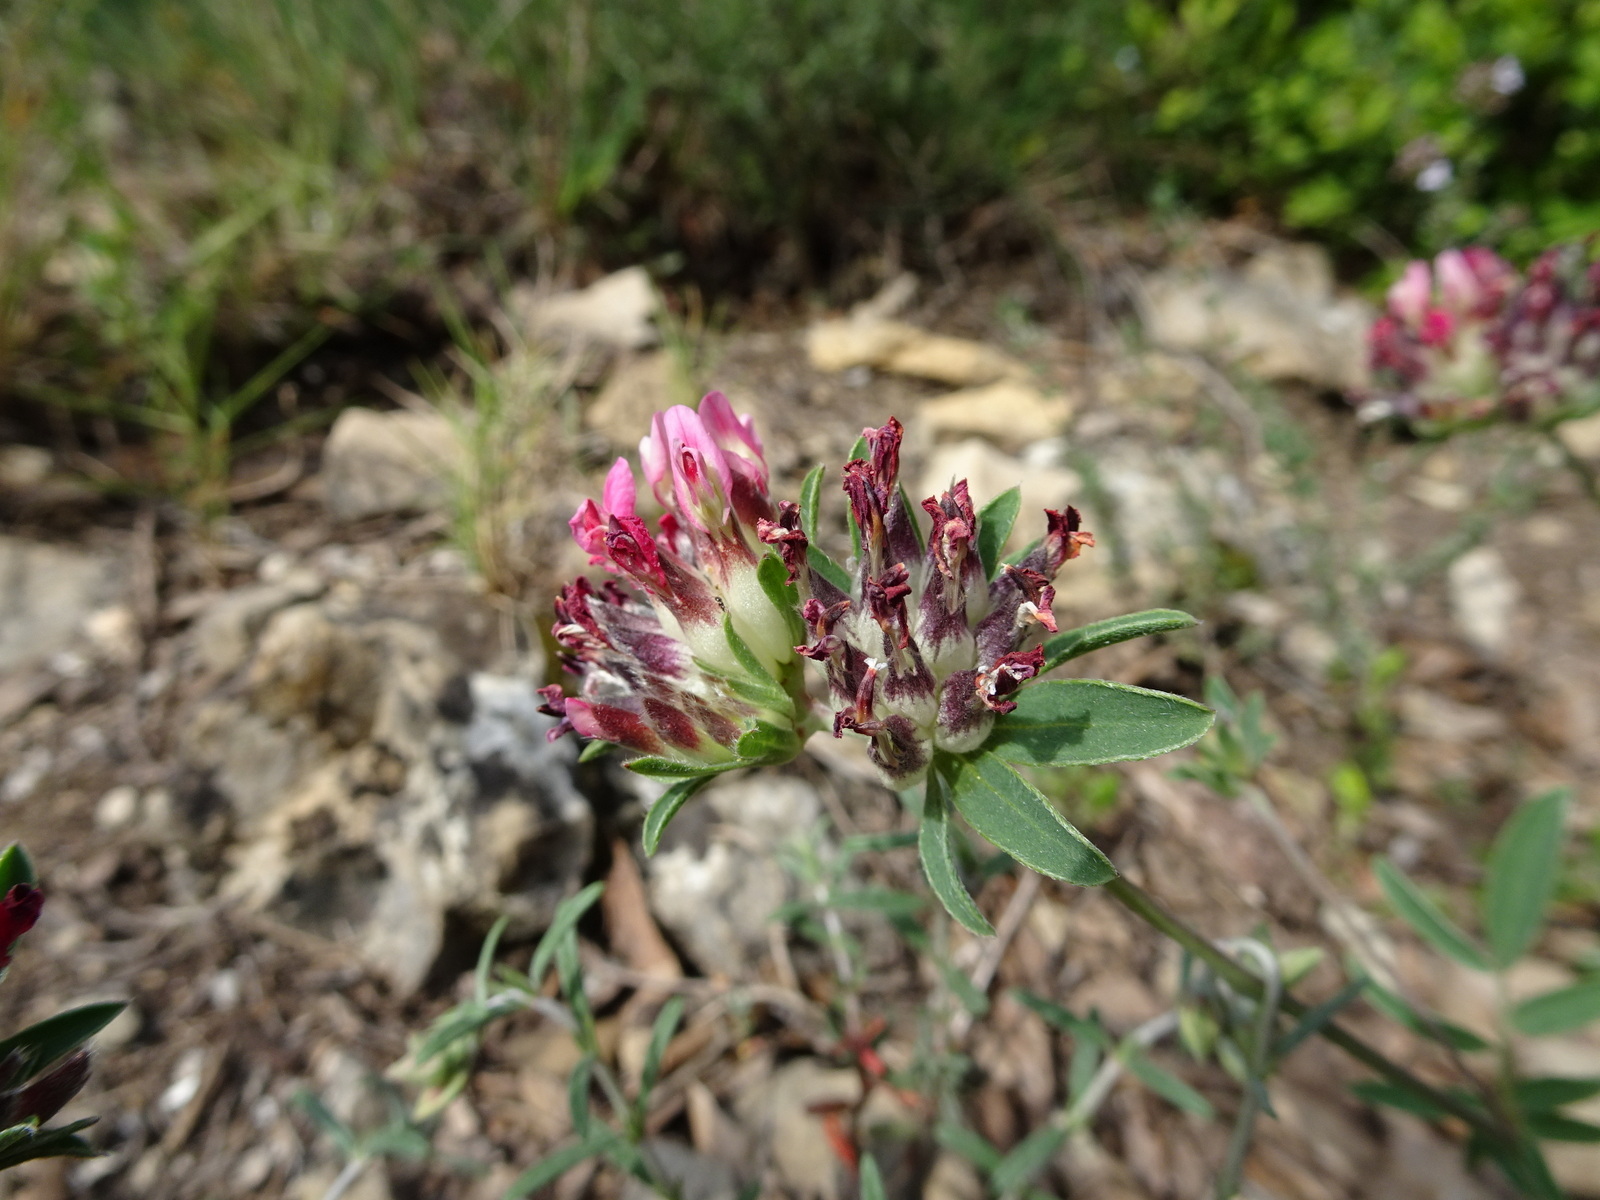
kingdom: Plantae
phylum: Tracheophyta
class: Magnoliopsida
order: Fabales
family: Fabaceae
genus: Anthyllis
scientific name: Anthyllis vulneraria
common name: Kidney vetch
